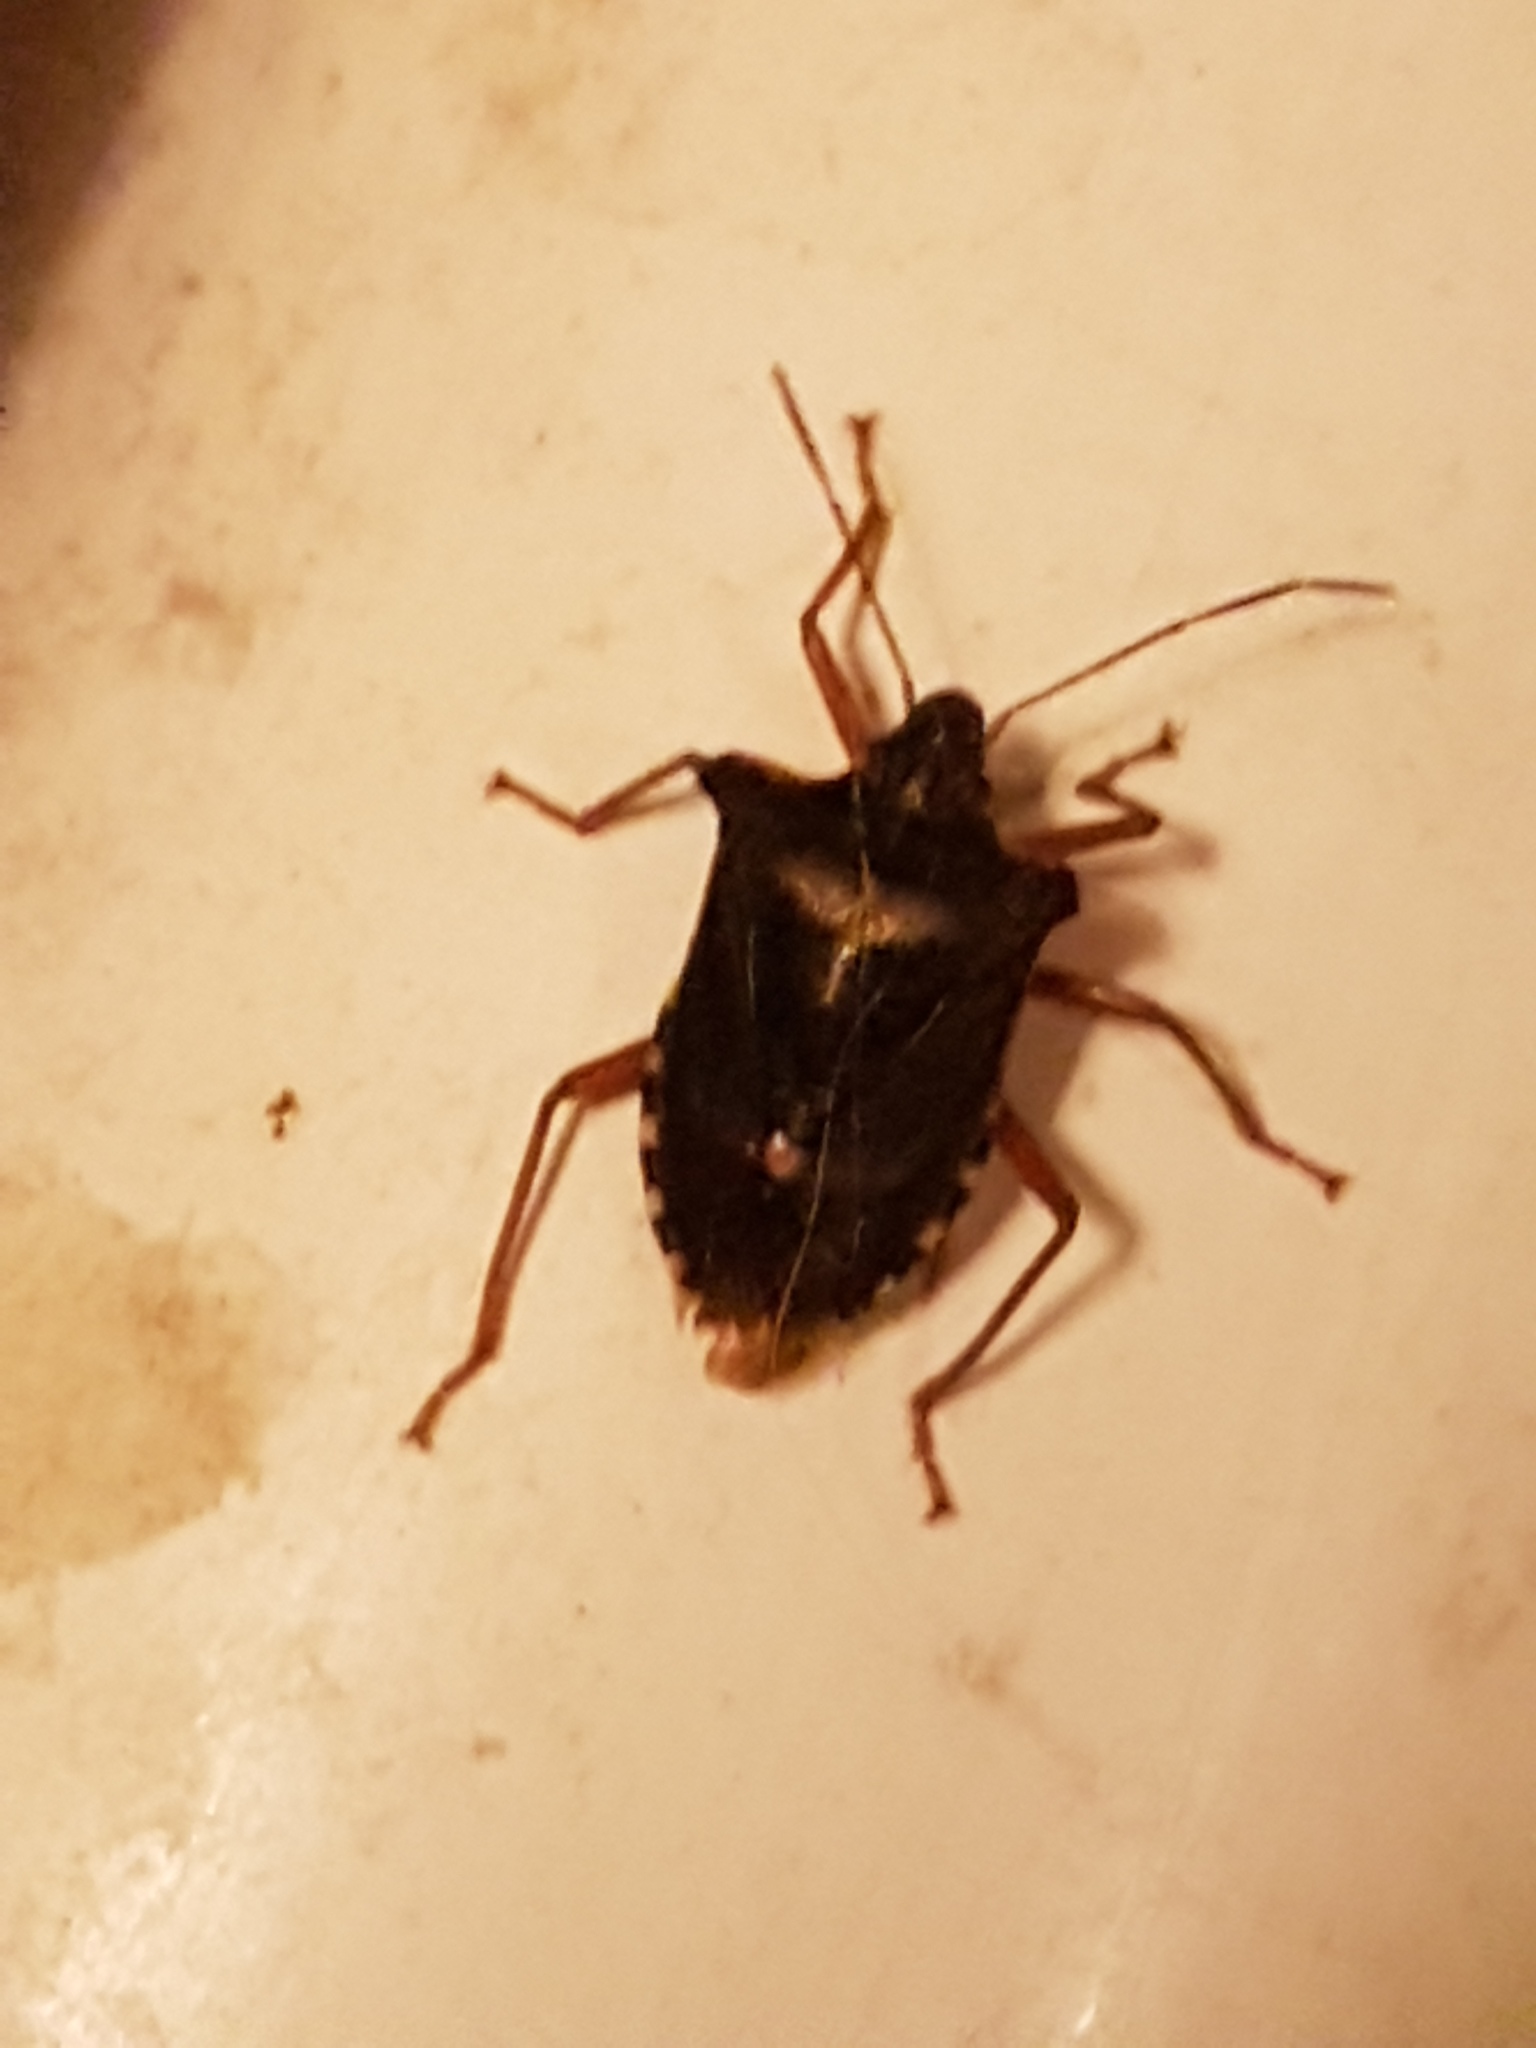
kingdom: Animalia
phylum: Arthropoda
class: Insecta
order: Hemiptera
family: Pentatomidae
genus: Pentatoma
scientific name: Pentatoma rufipes
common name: Forest bug
